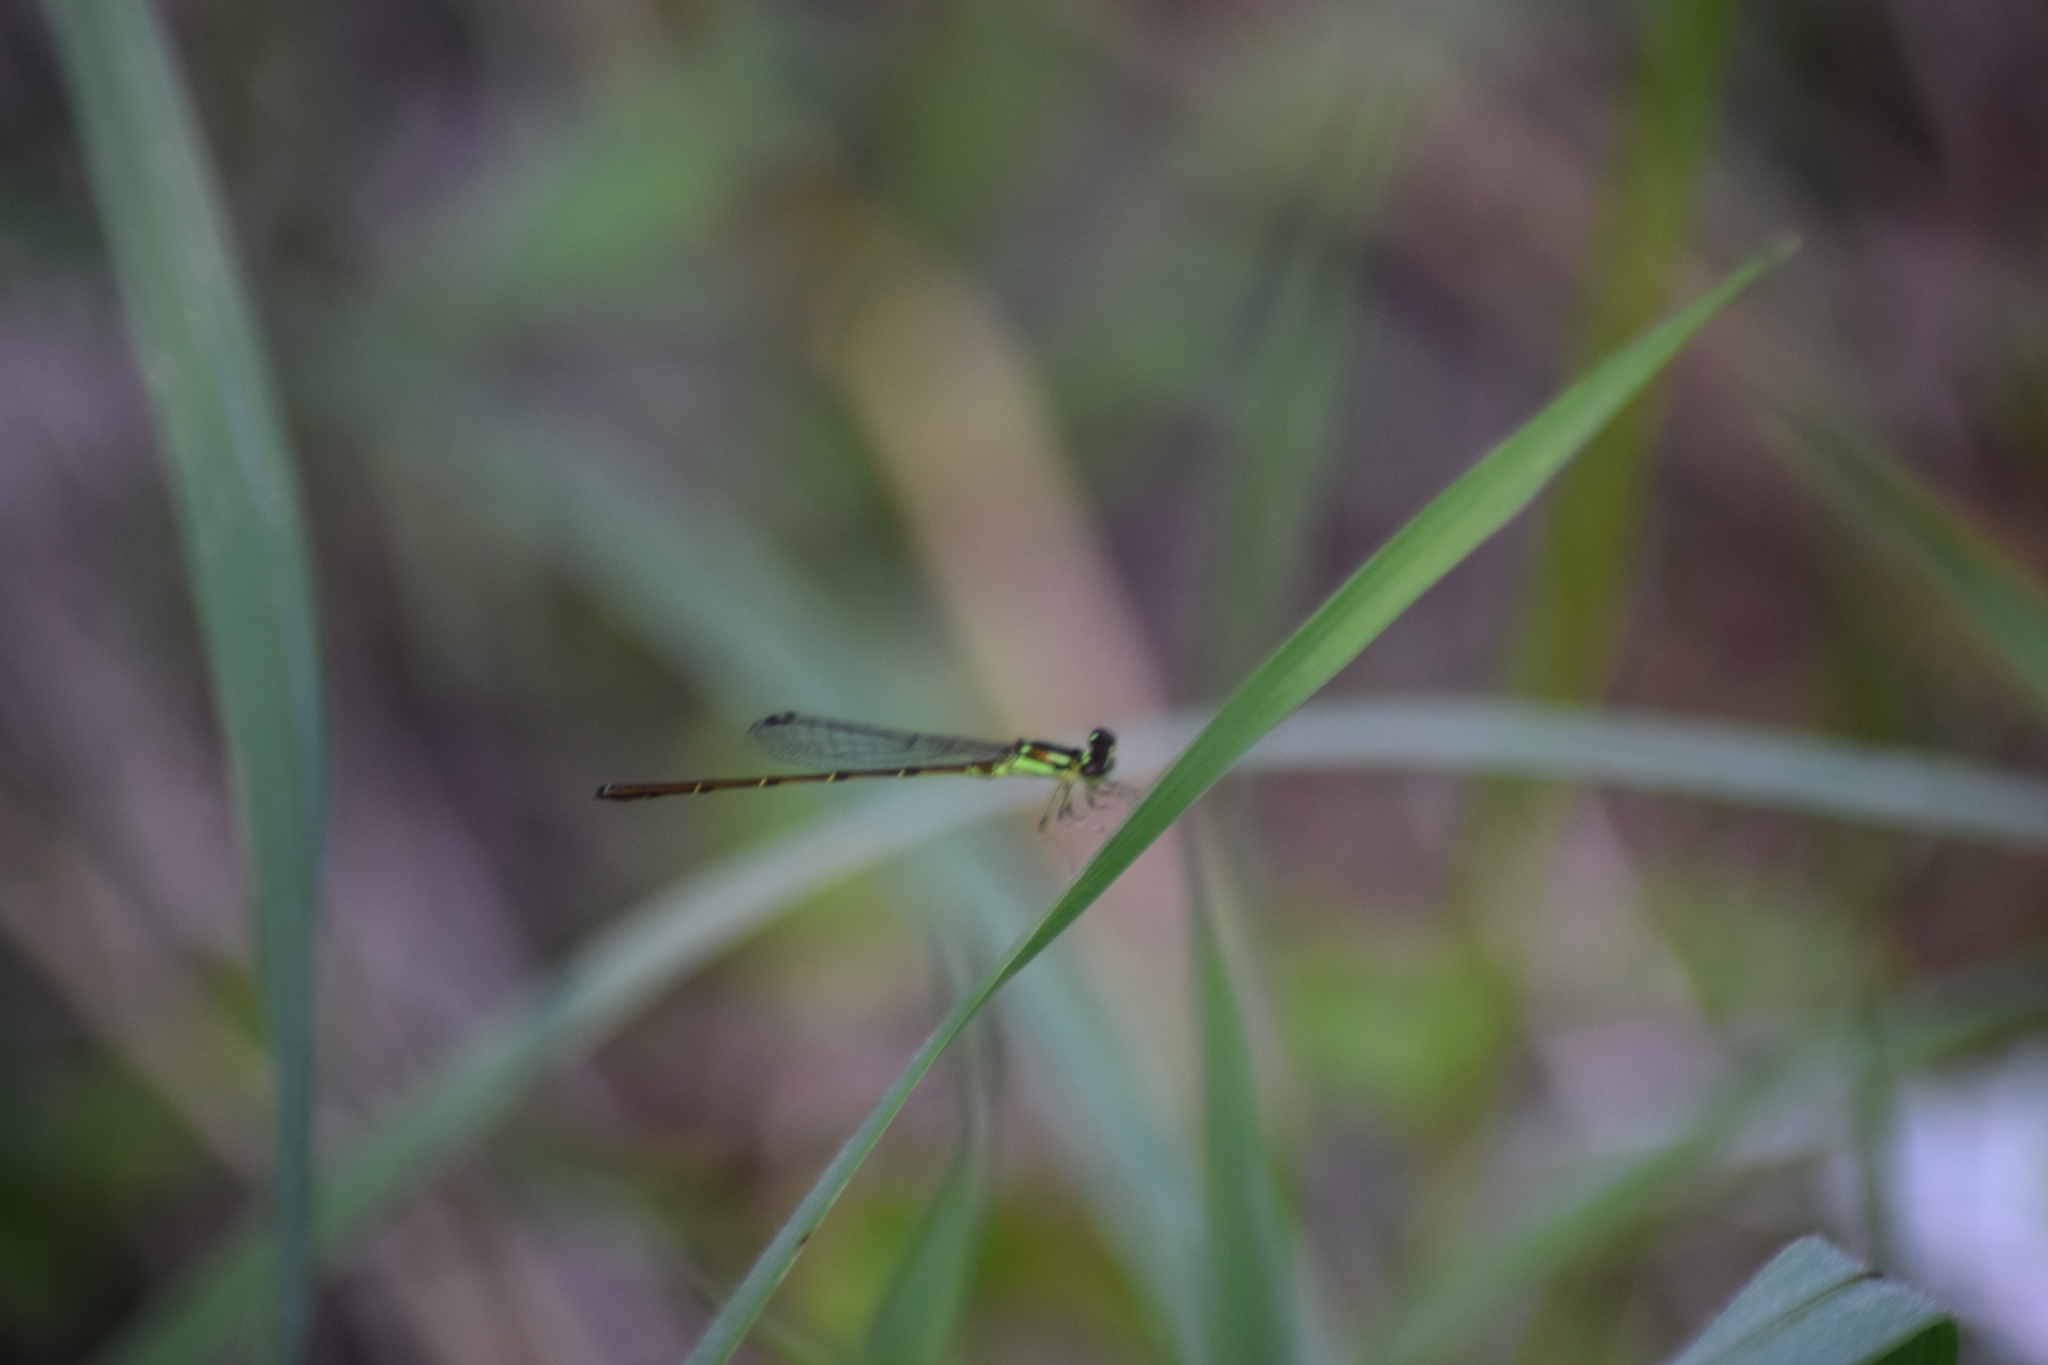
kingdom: Animalia
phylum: Arthropoda
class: Insecta
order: Odonata
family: Coenagrionidae
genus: Ischnura
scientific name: Ischnura posita
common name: Fragile forktail
